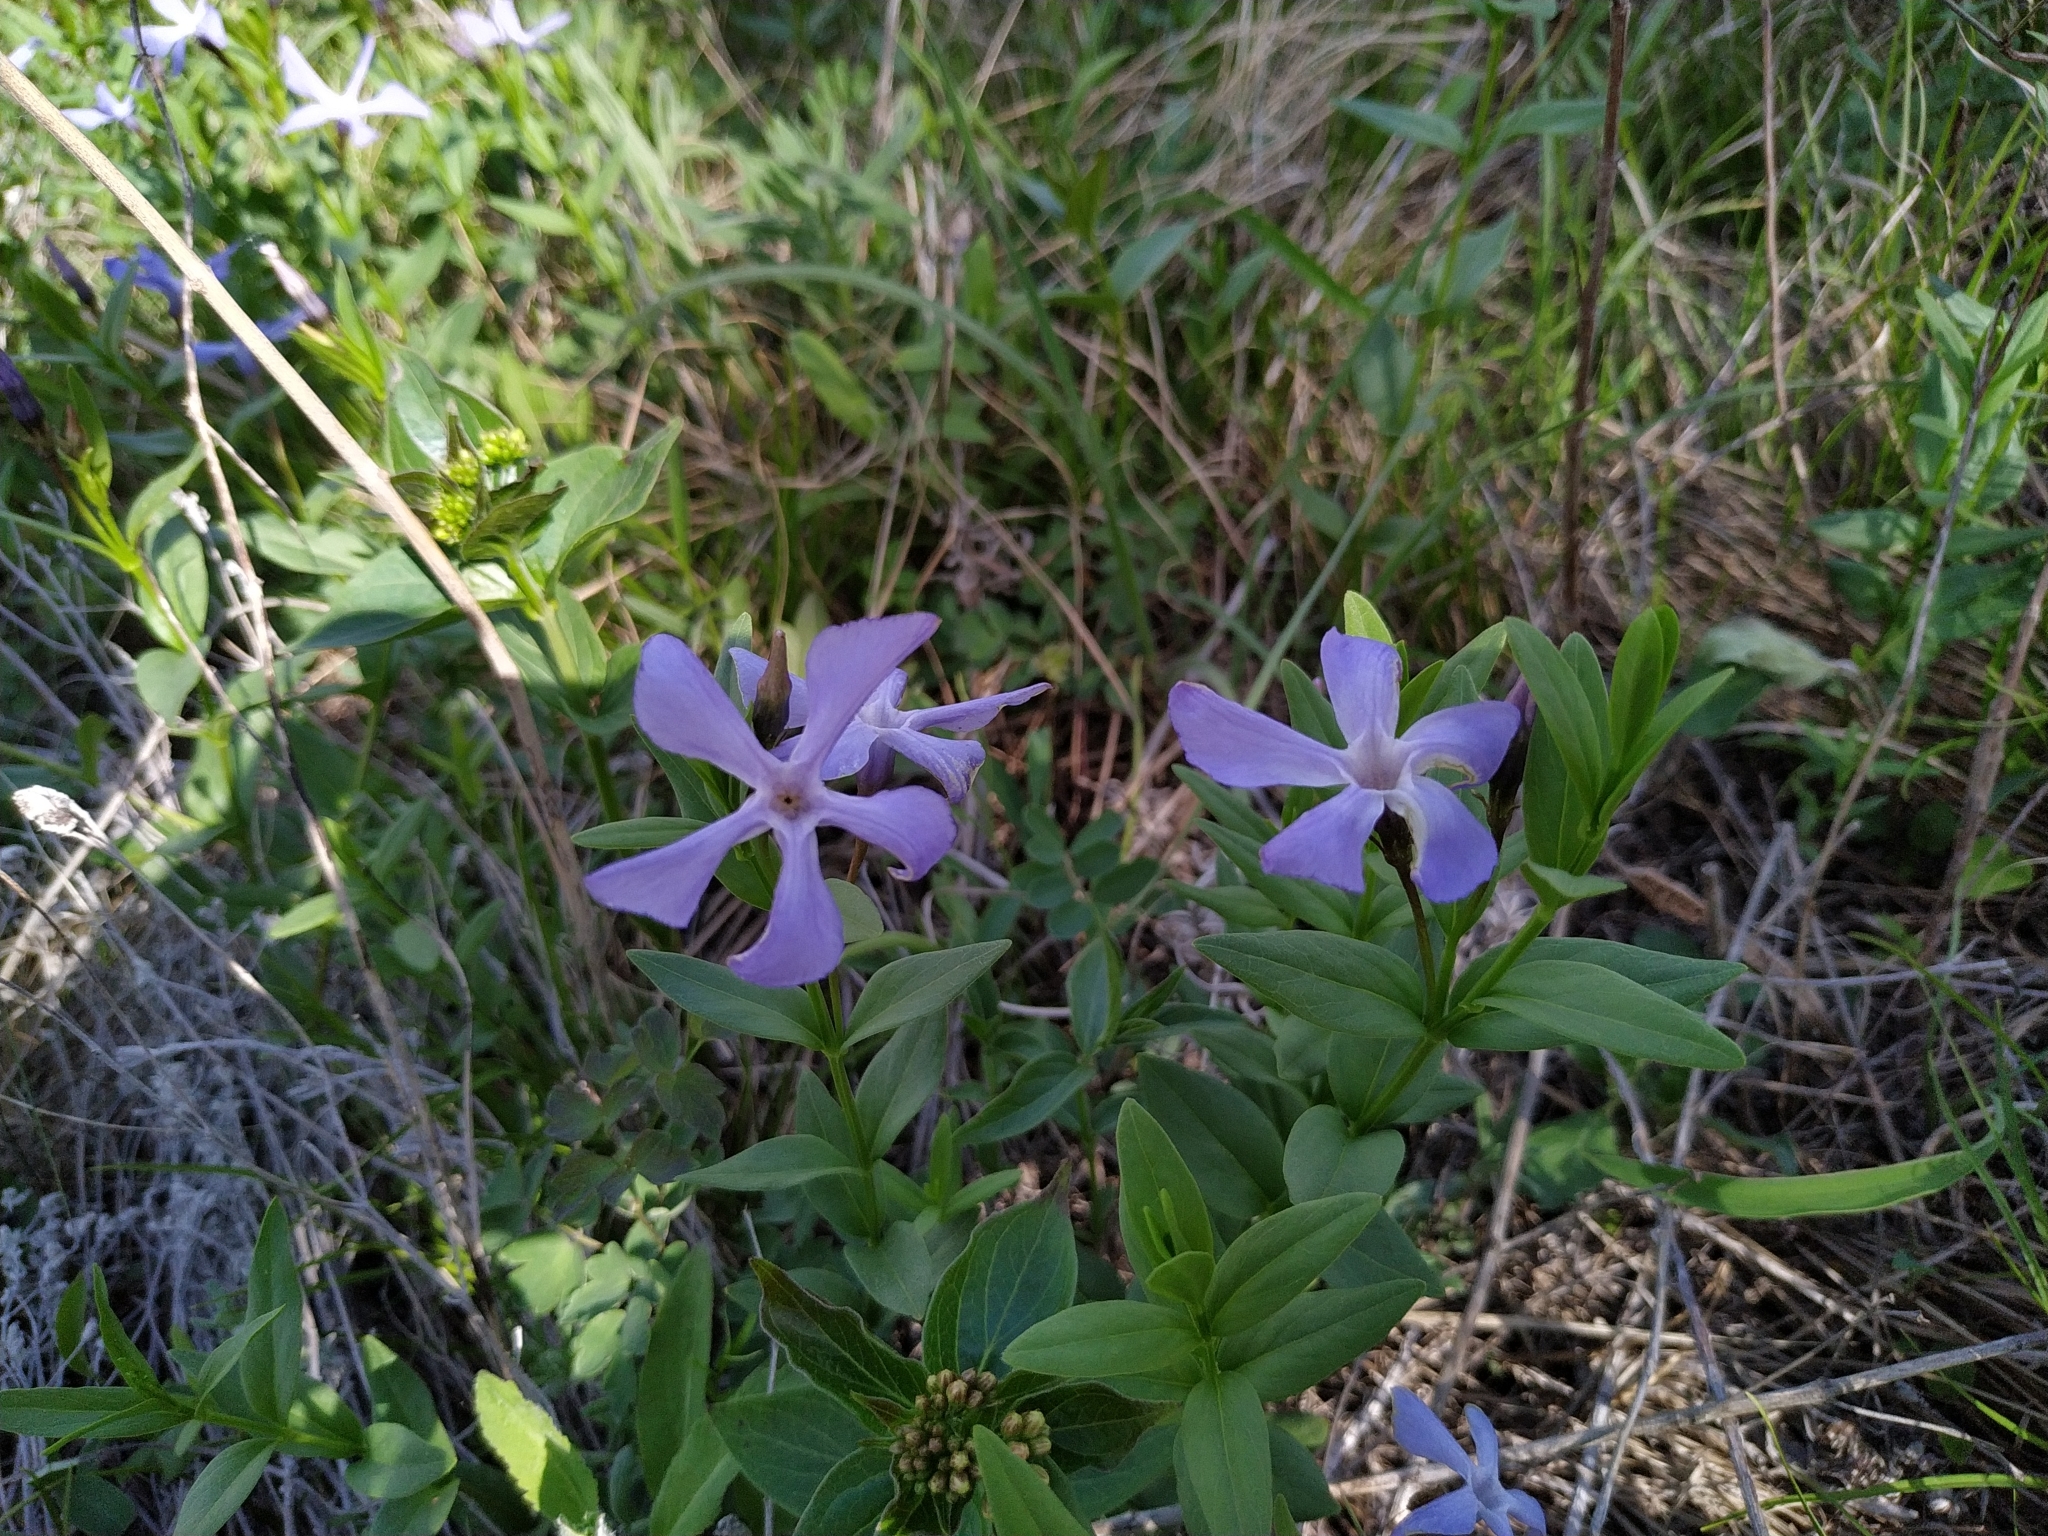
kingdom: Plantae
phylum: Tracheophyta
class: Magnoliopsida
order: Gentianales
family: Apocynaceae
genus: Vinca
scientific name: Vinca herbacea
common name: Herbaceous periwinkle
